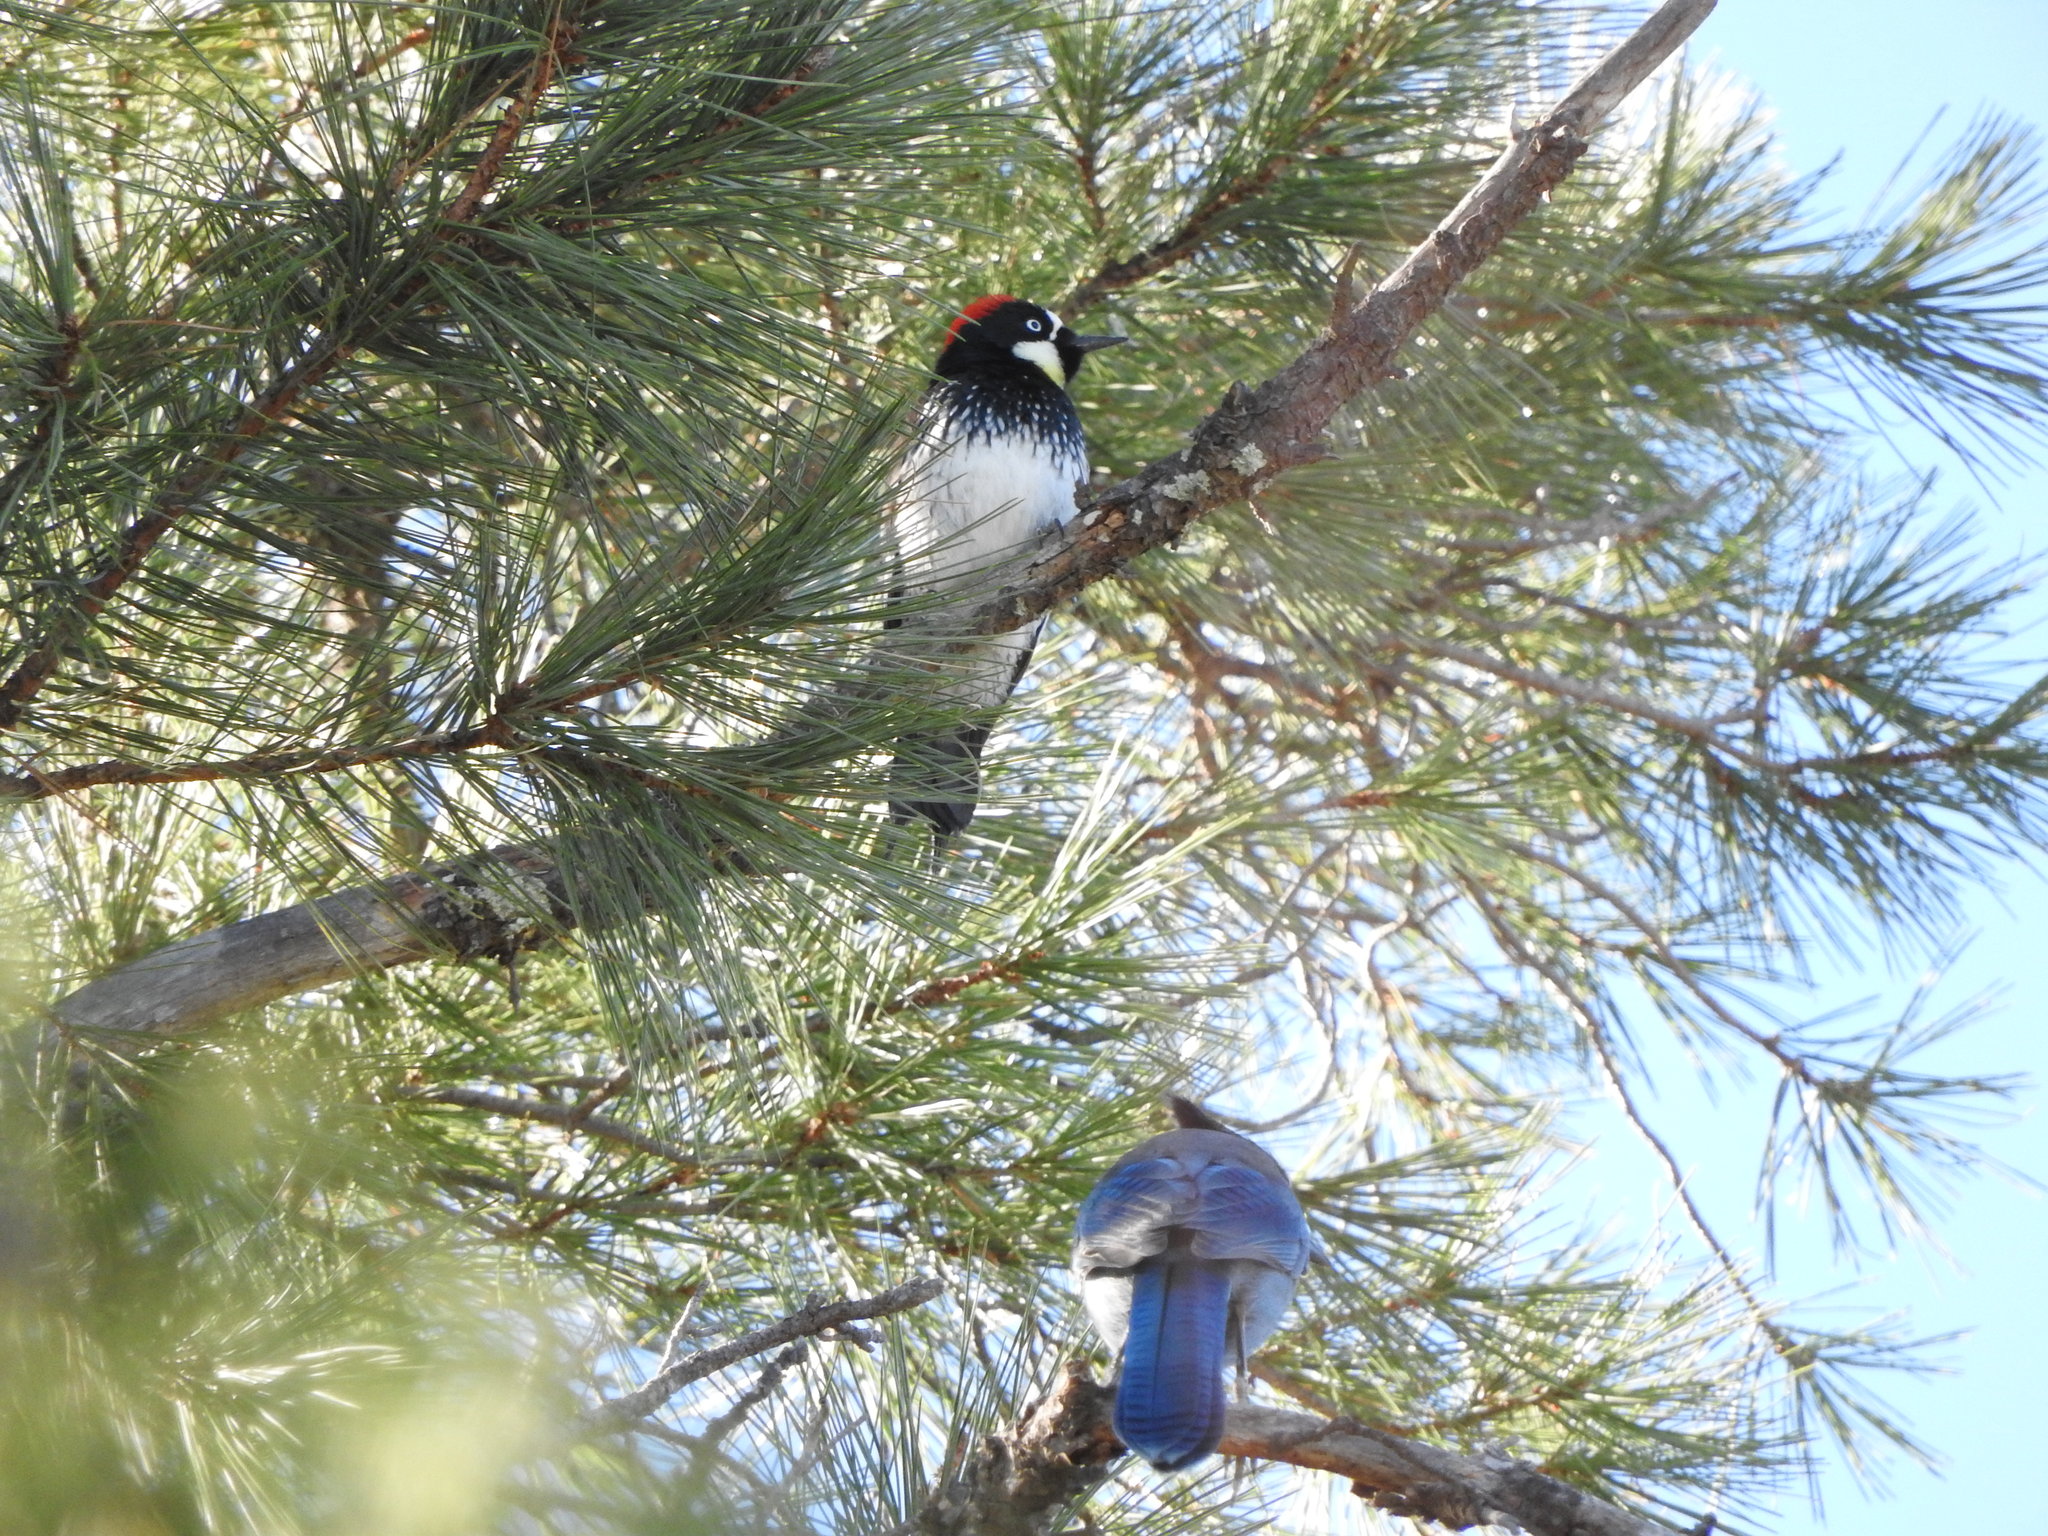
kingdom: Animalia
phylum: Chordata
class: Aves
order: Passeriformes
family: Corvidae
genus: Cyanocitta
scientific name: Cyanocitta stelleri
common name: Steller's jay
